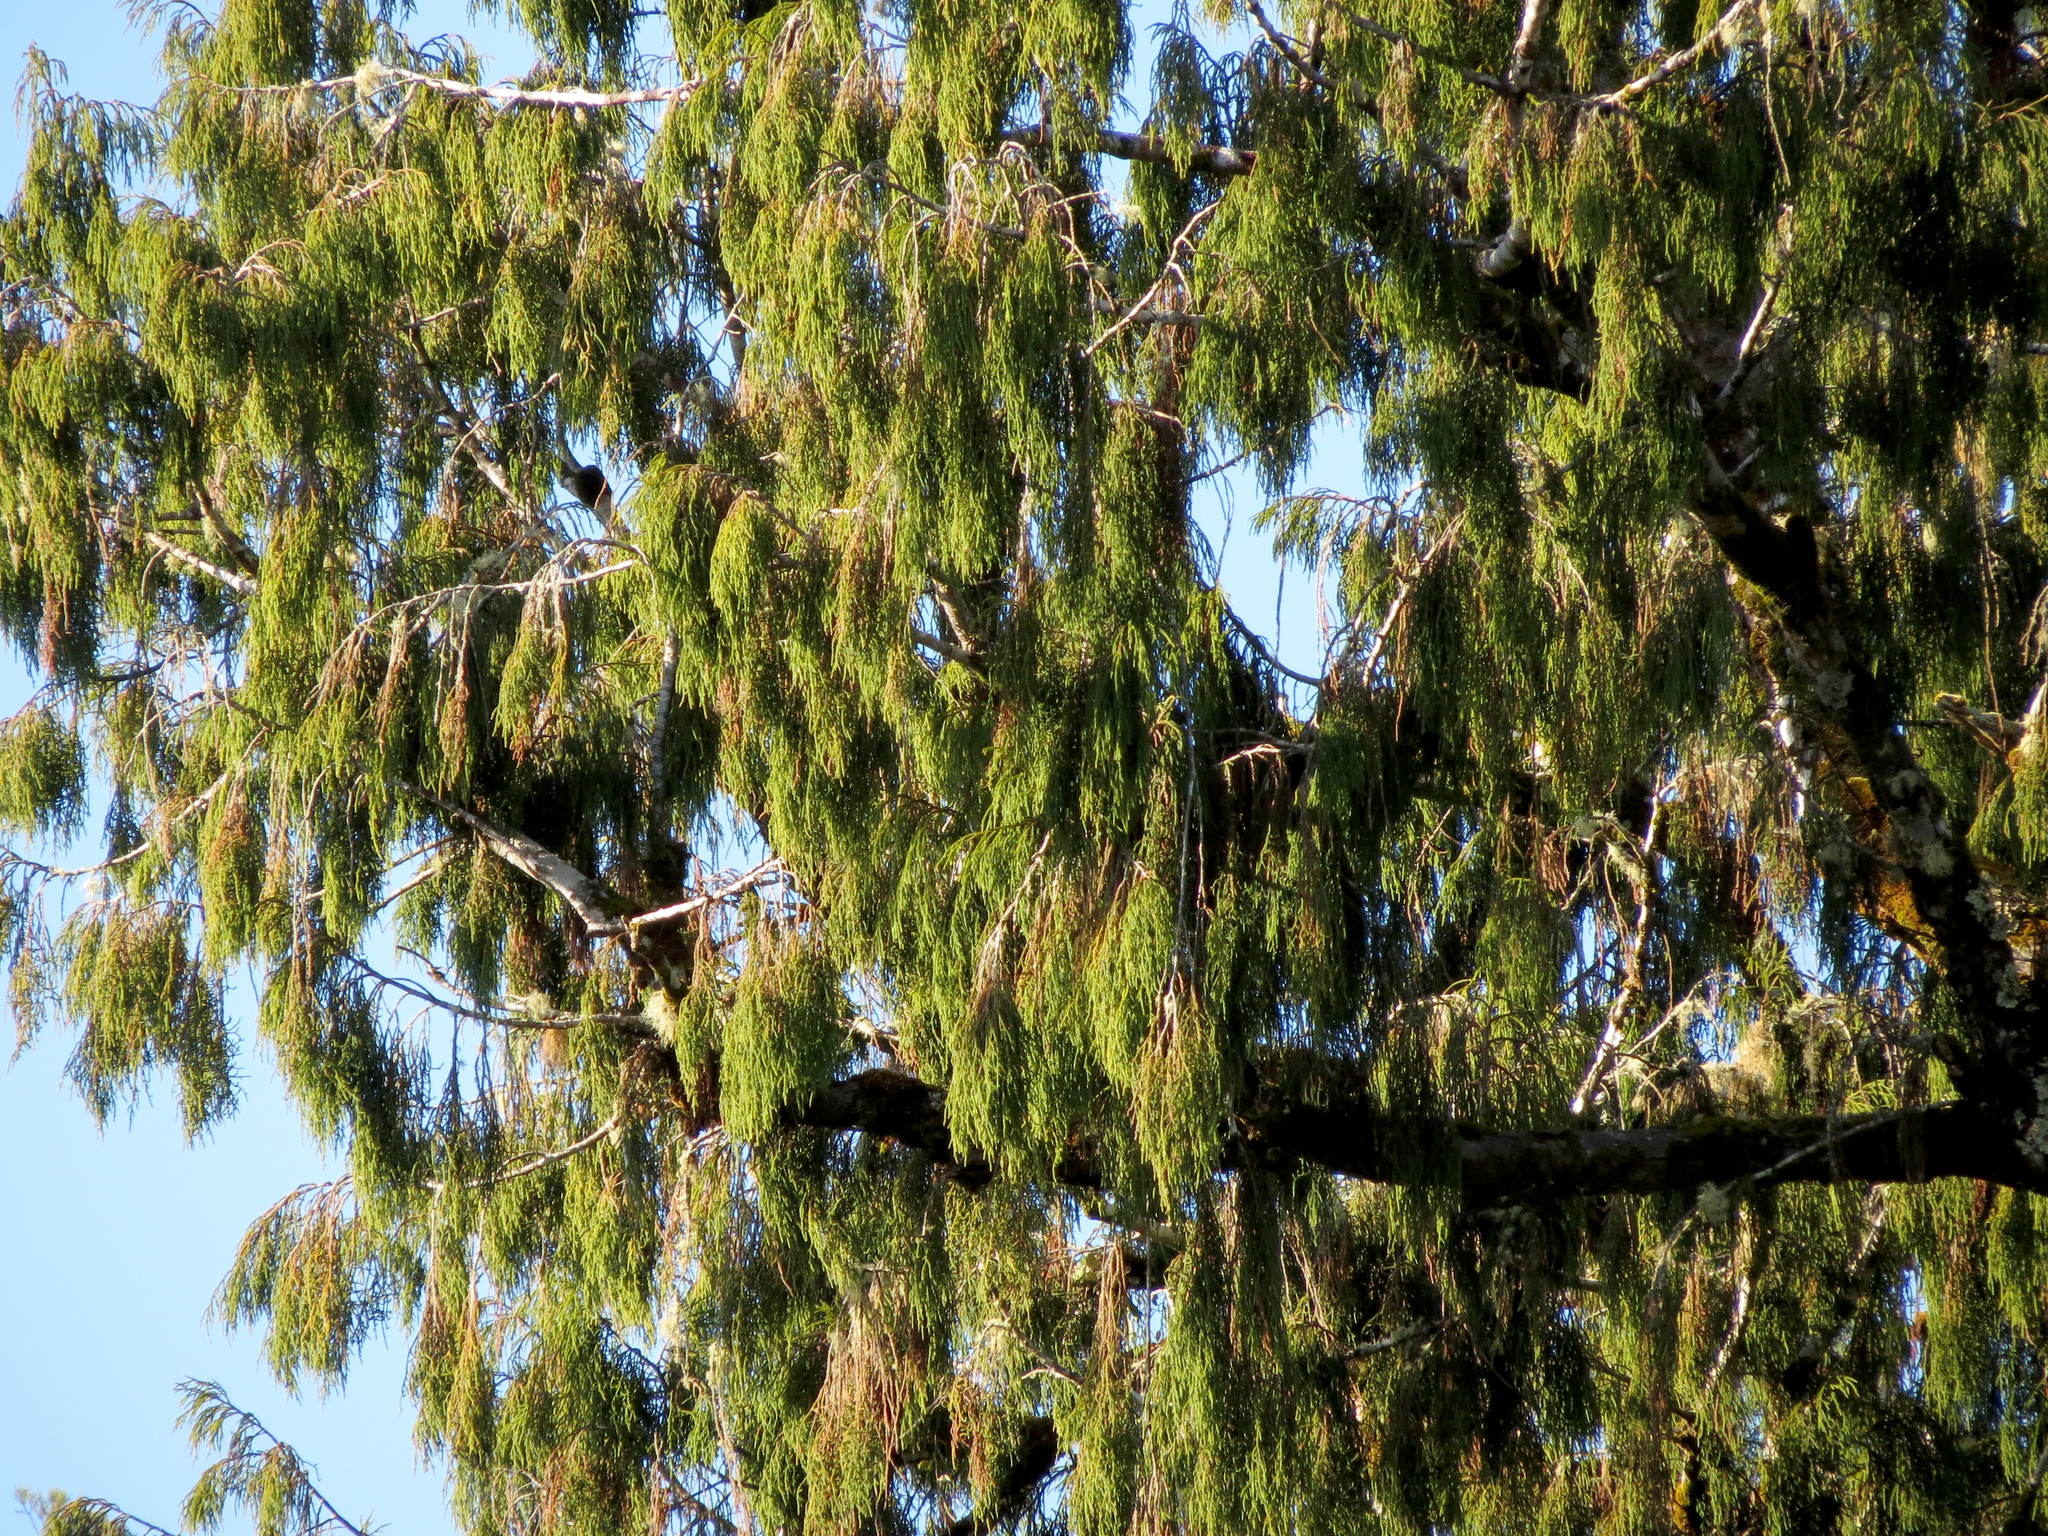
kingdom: Plantae
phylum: Tracheophyta
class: Pinopsida
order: Pinales
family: Podocarpaceae
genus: Dacrydium
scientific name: Dacrydium cupressinum
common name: Red pine
